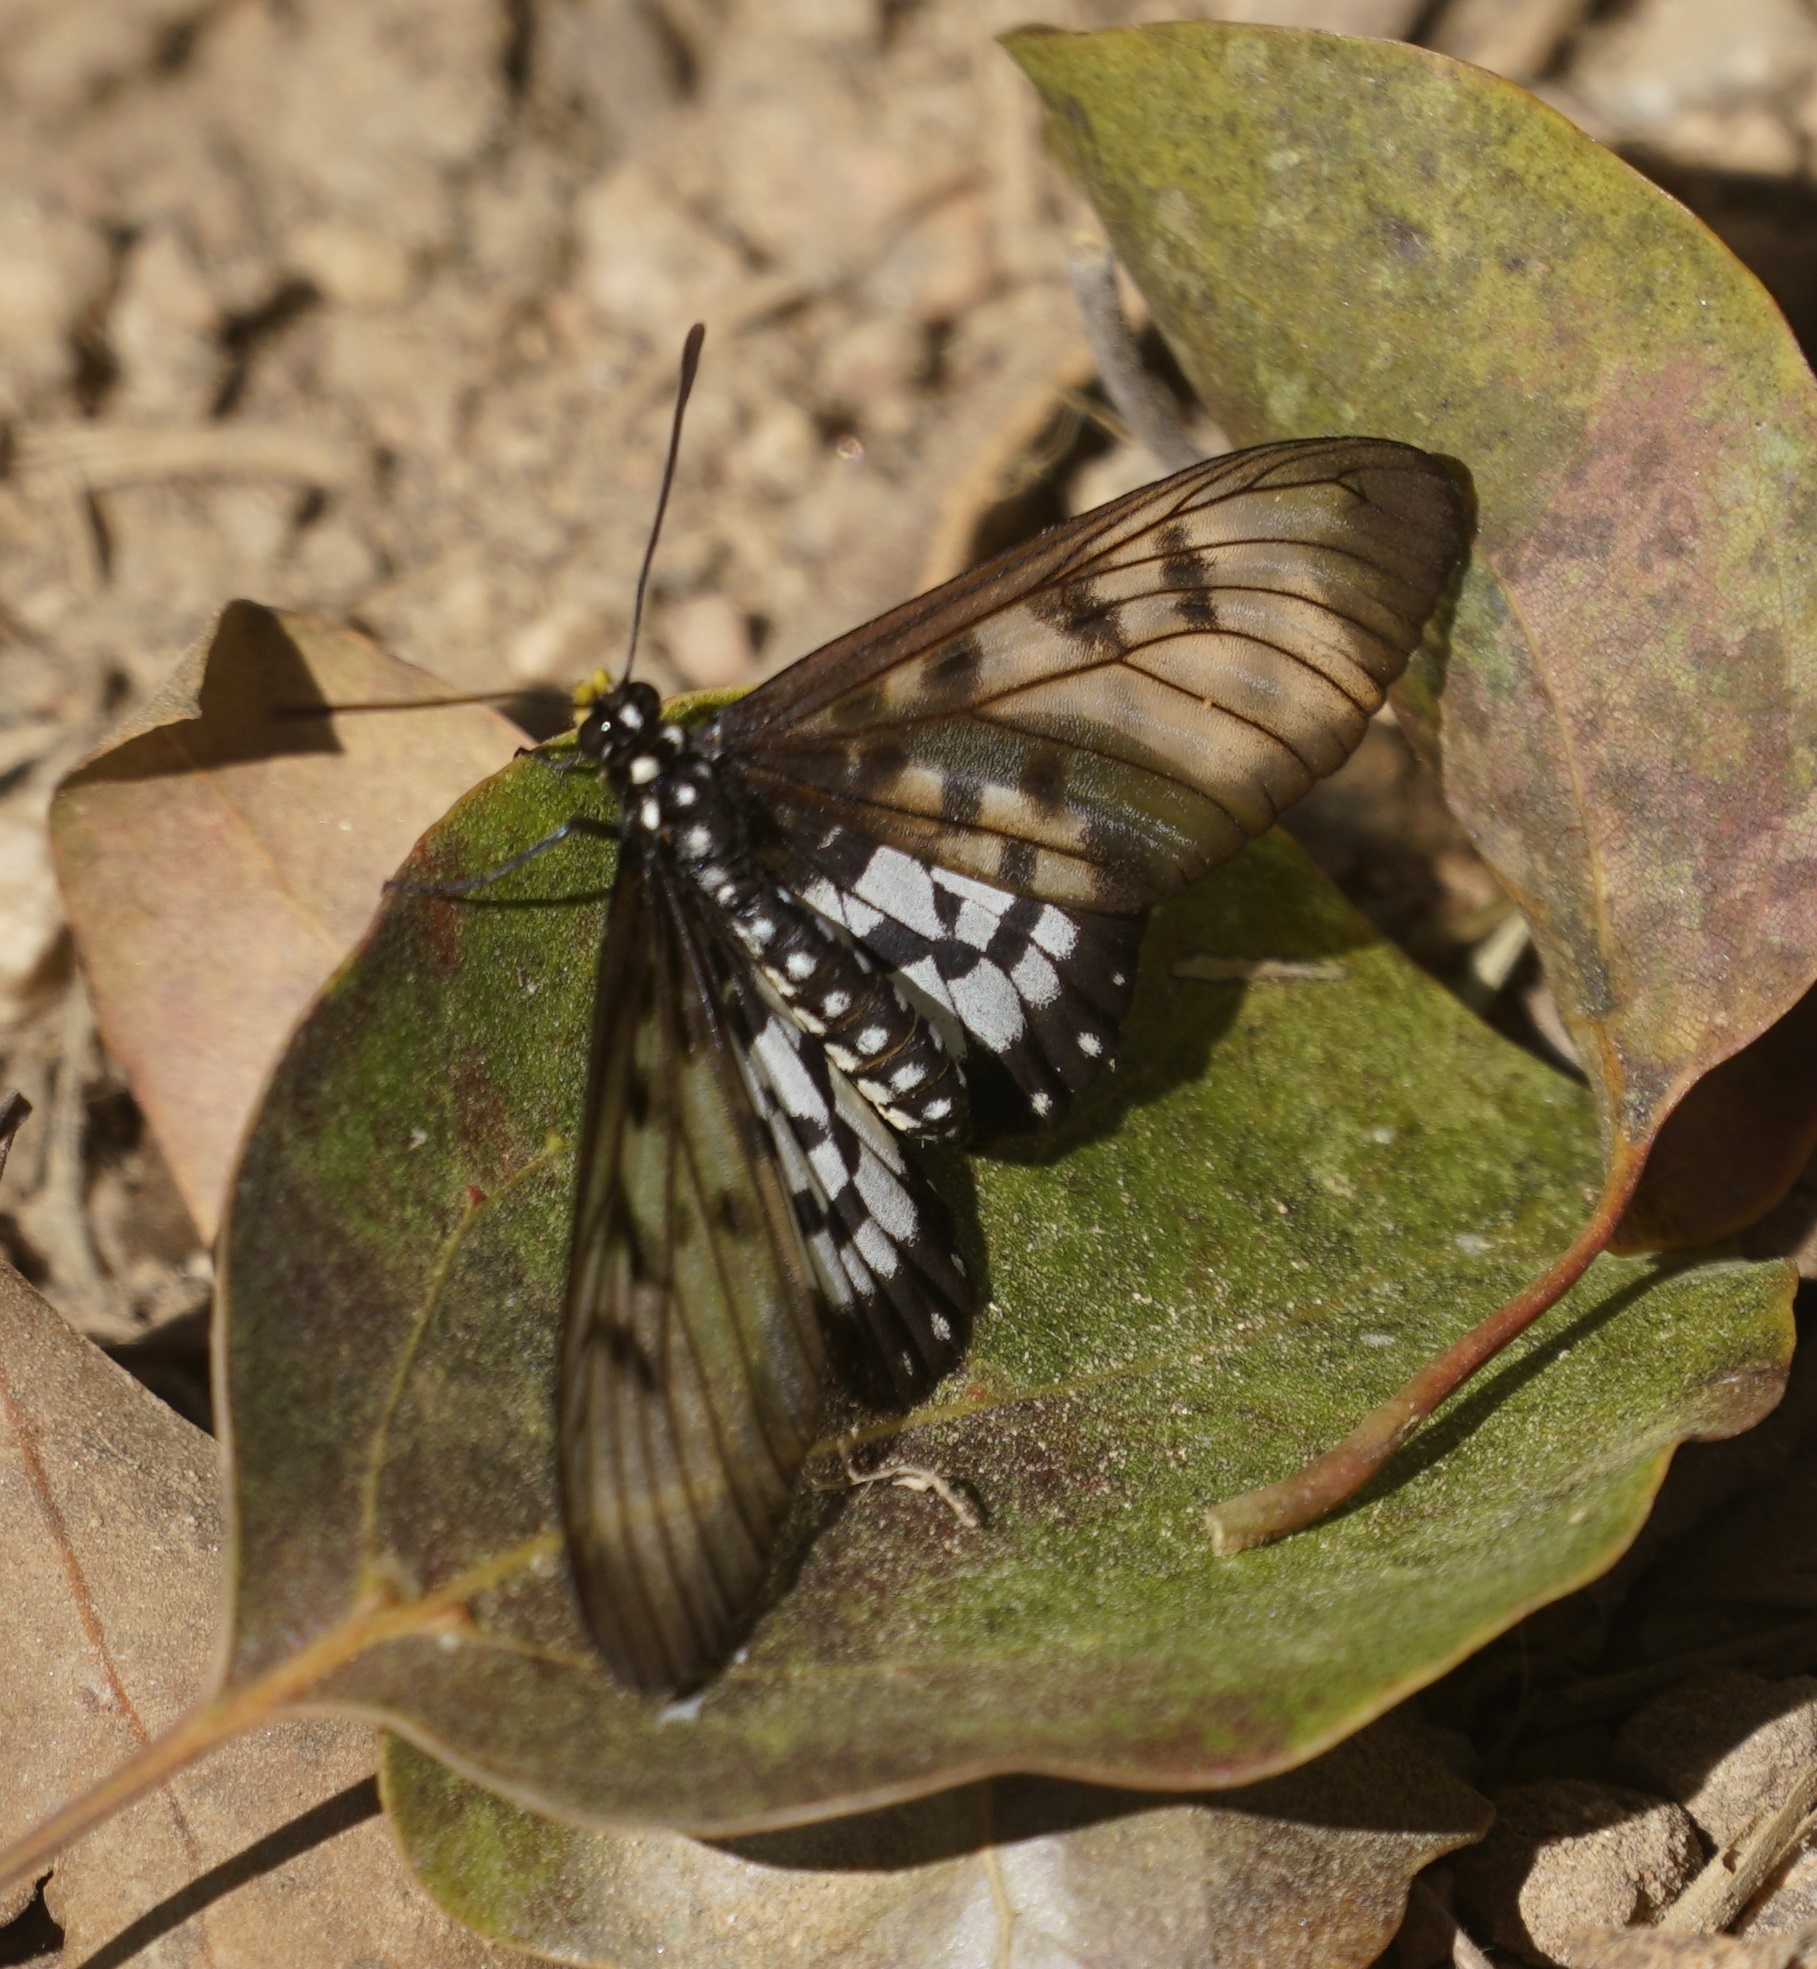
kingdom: Animalia
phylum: Arthropoda
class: Insecta
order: Lepidoptera
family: Nymphalidae
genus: Acraea
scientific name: Acraea andromacha
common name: Glasswing
